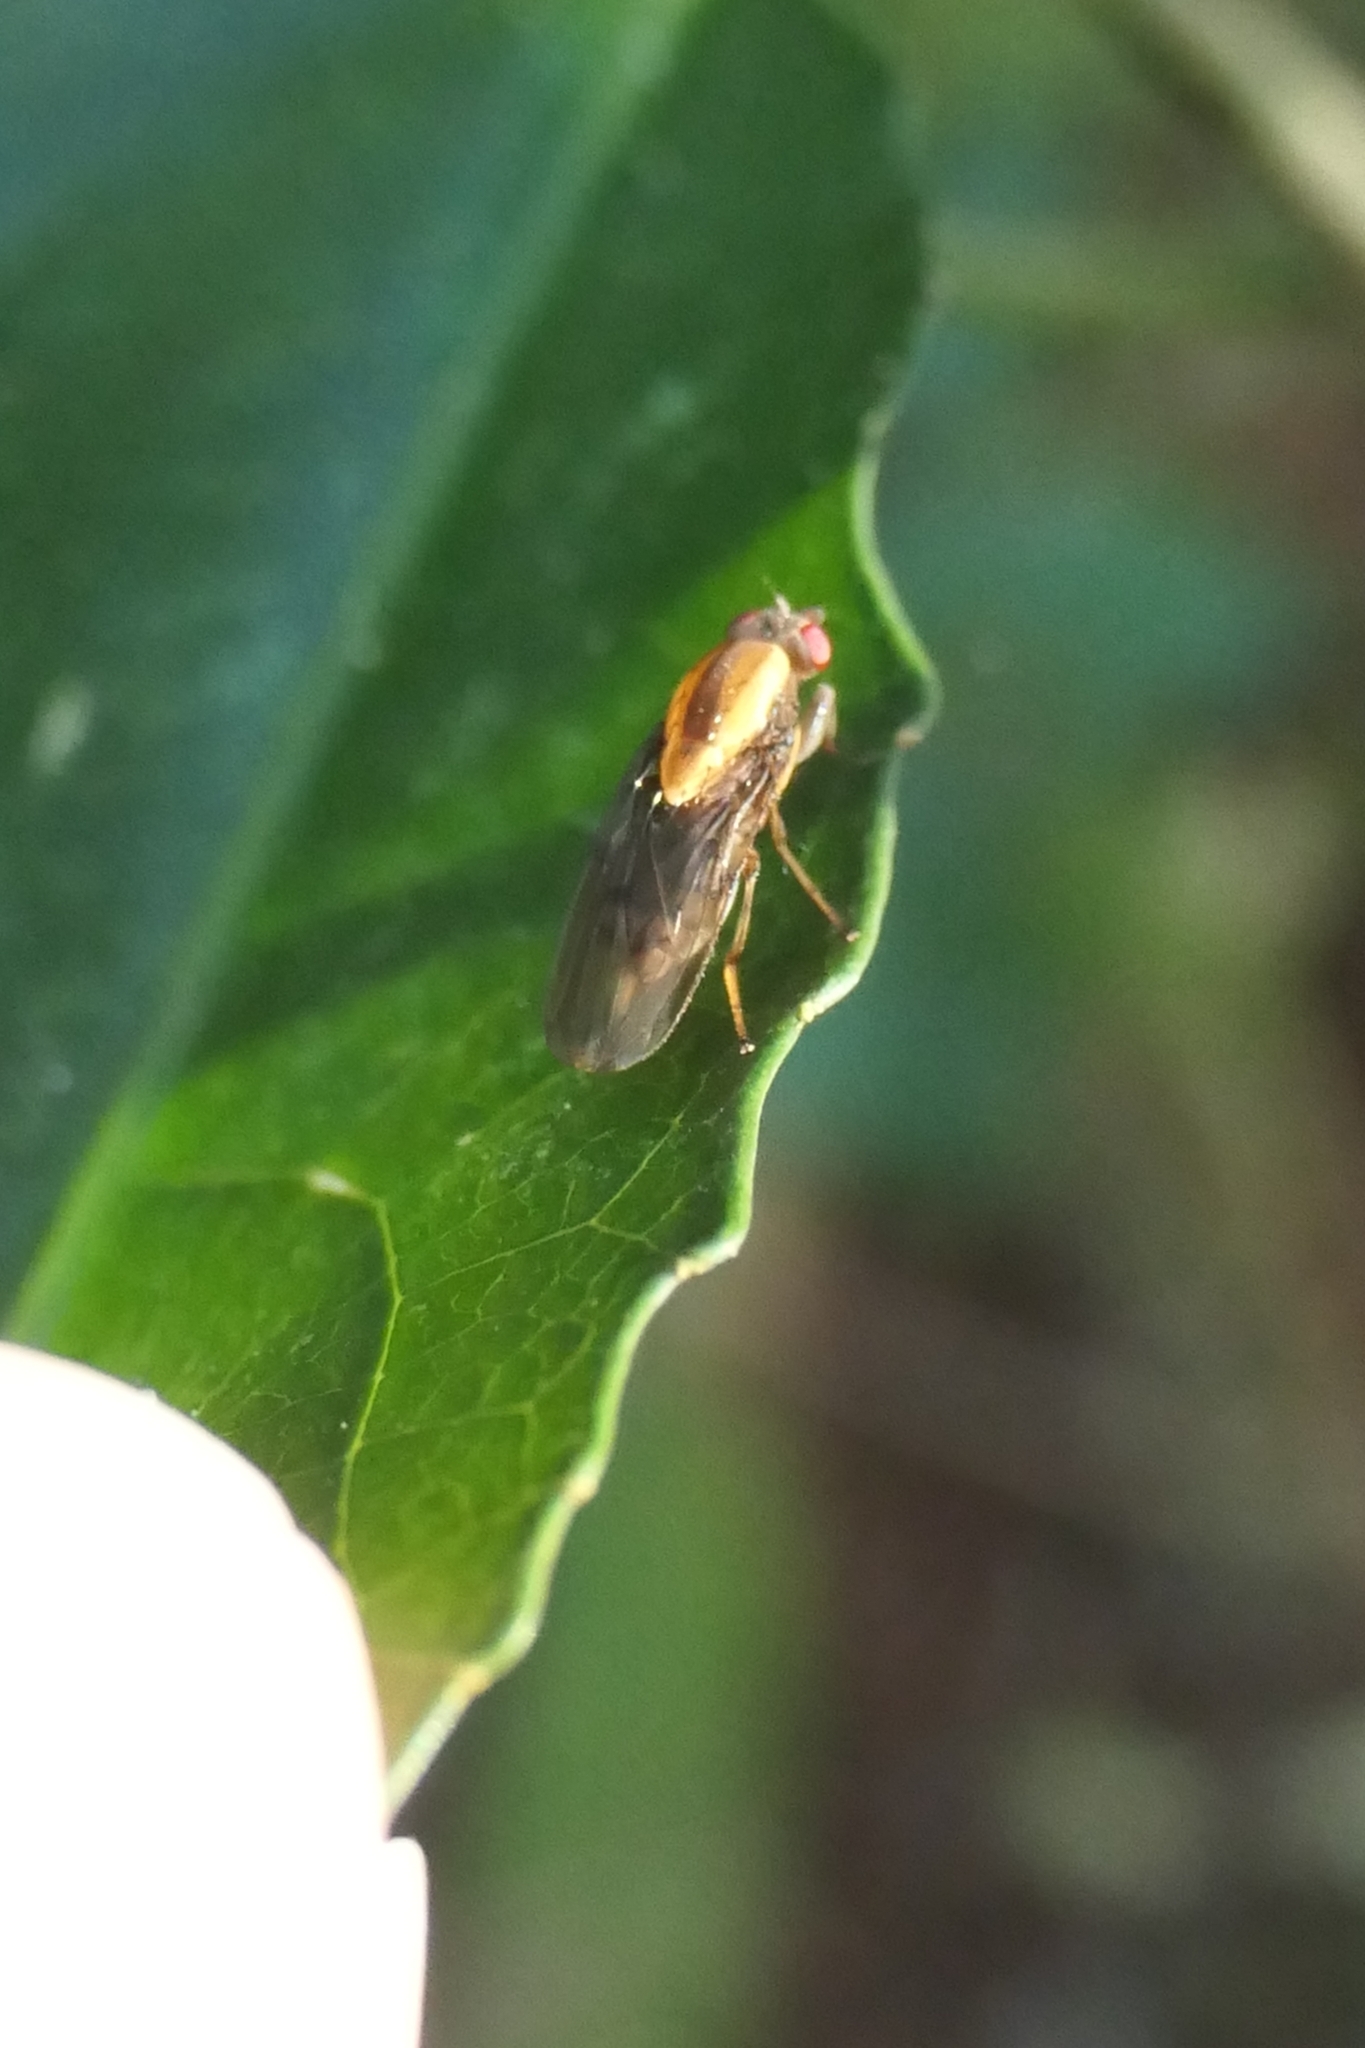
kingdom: Animalia
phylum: Arthropoda
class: Insecta
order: Diptera
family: Heleomyzidae
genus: Allophylopsis
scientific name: Allophylopsis scutellata
